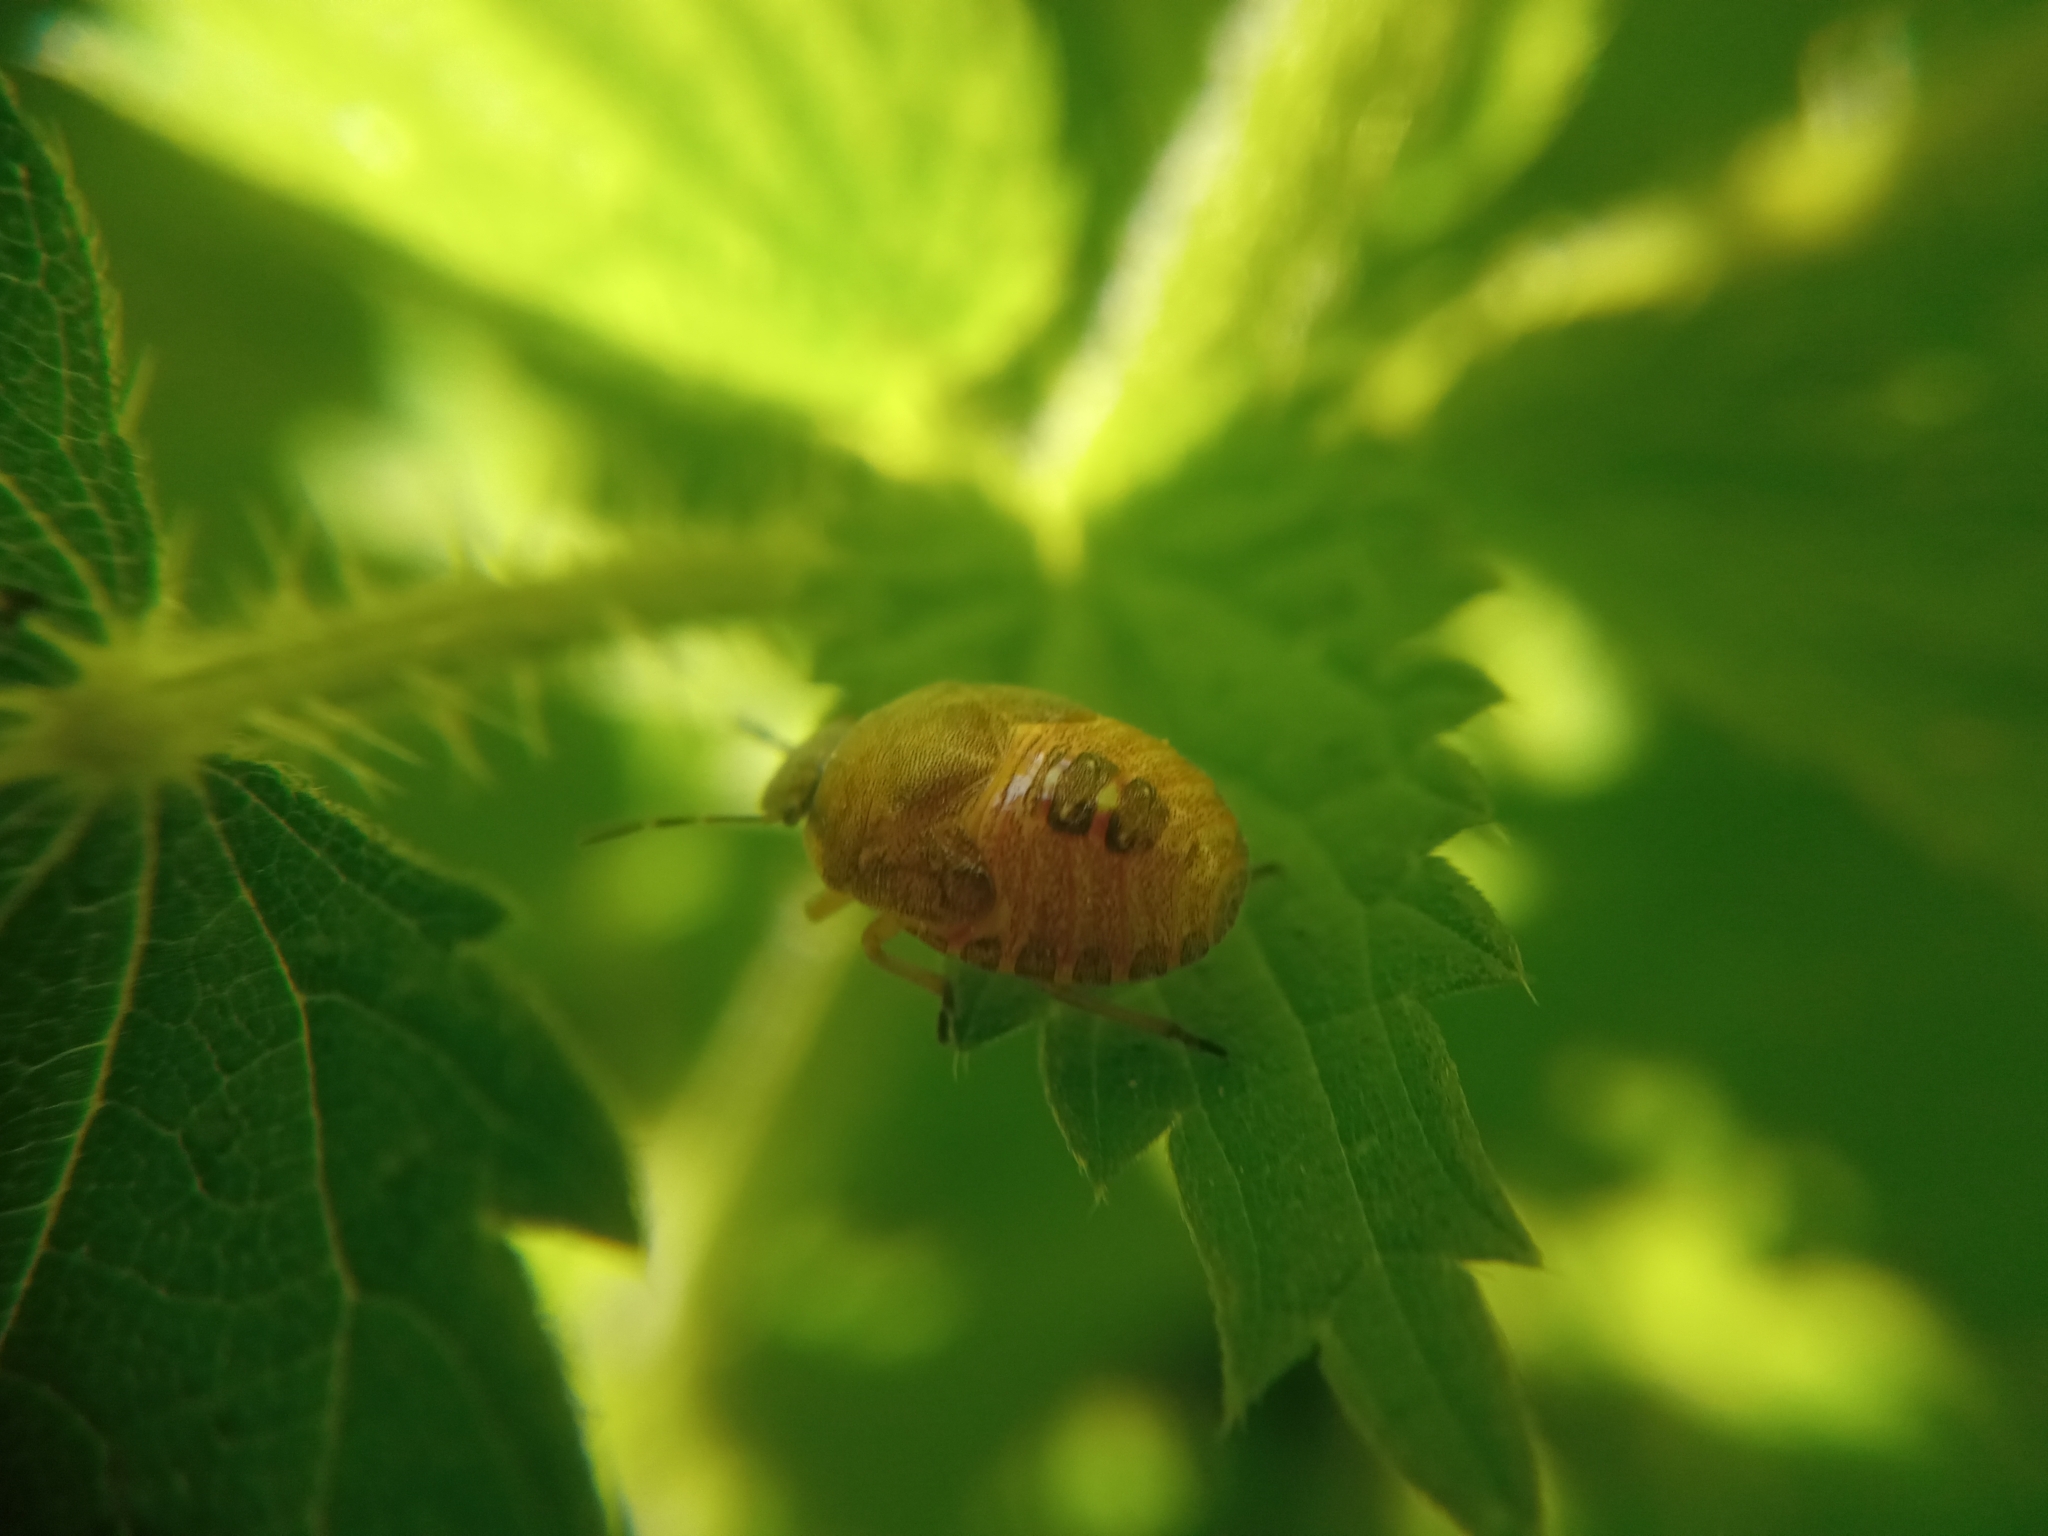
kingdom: Animalia
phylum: Arthropoda
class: Insecta
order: Hemiptera
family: Pentatomidae
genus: Holcostethus
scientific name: Holcostethus strictus
